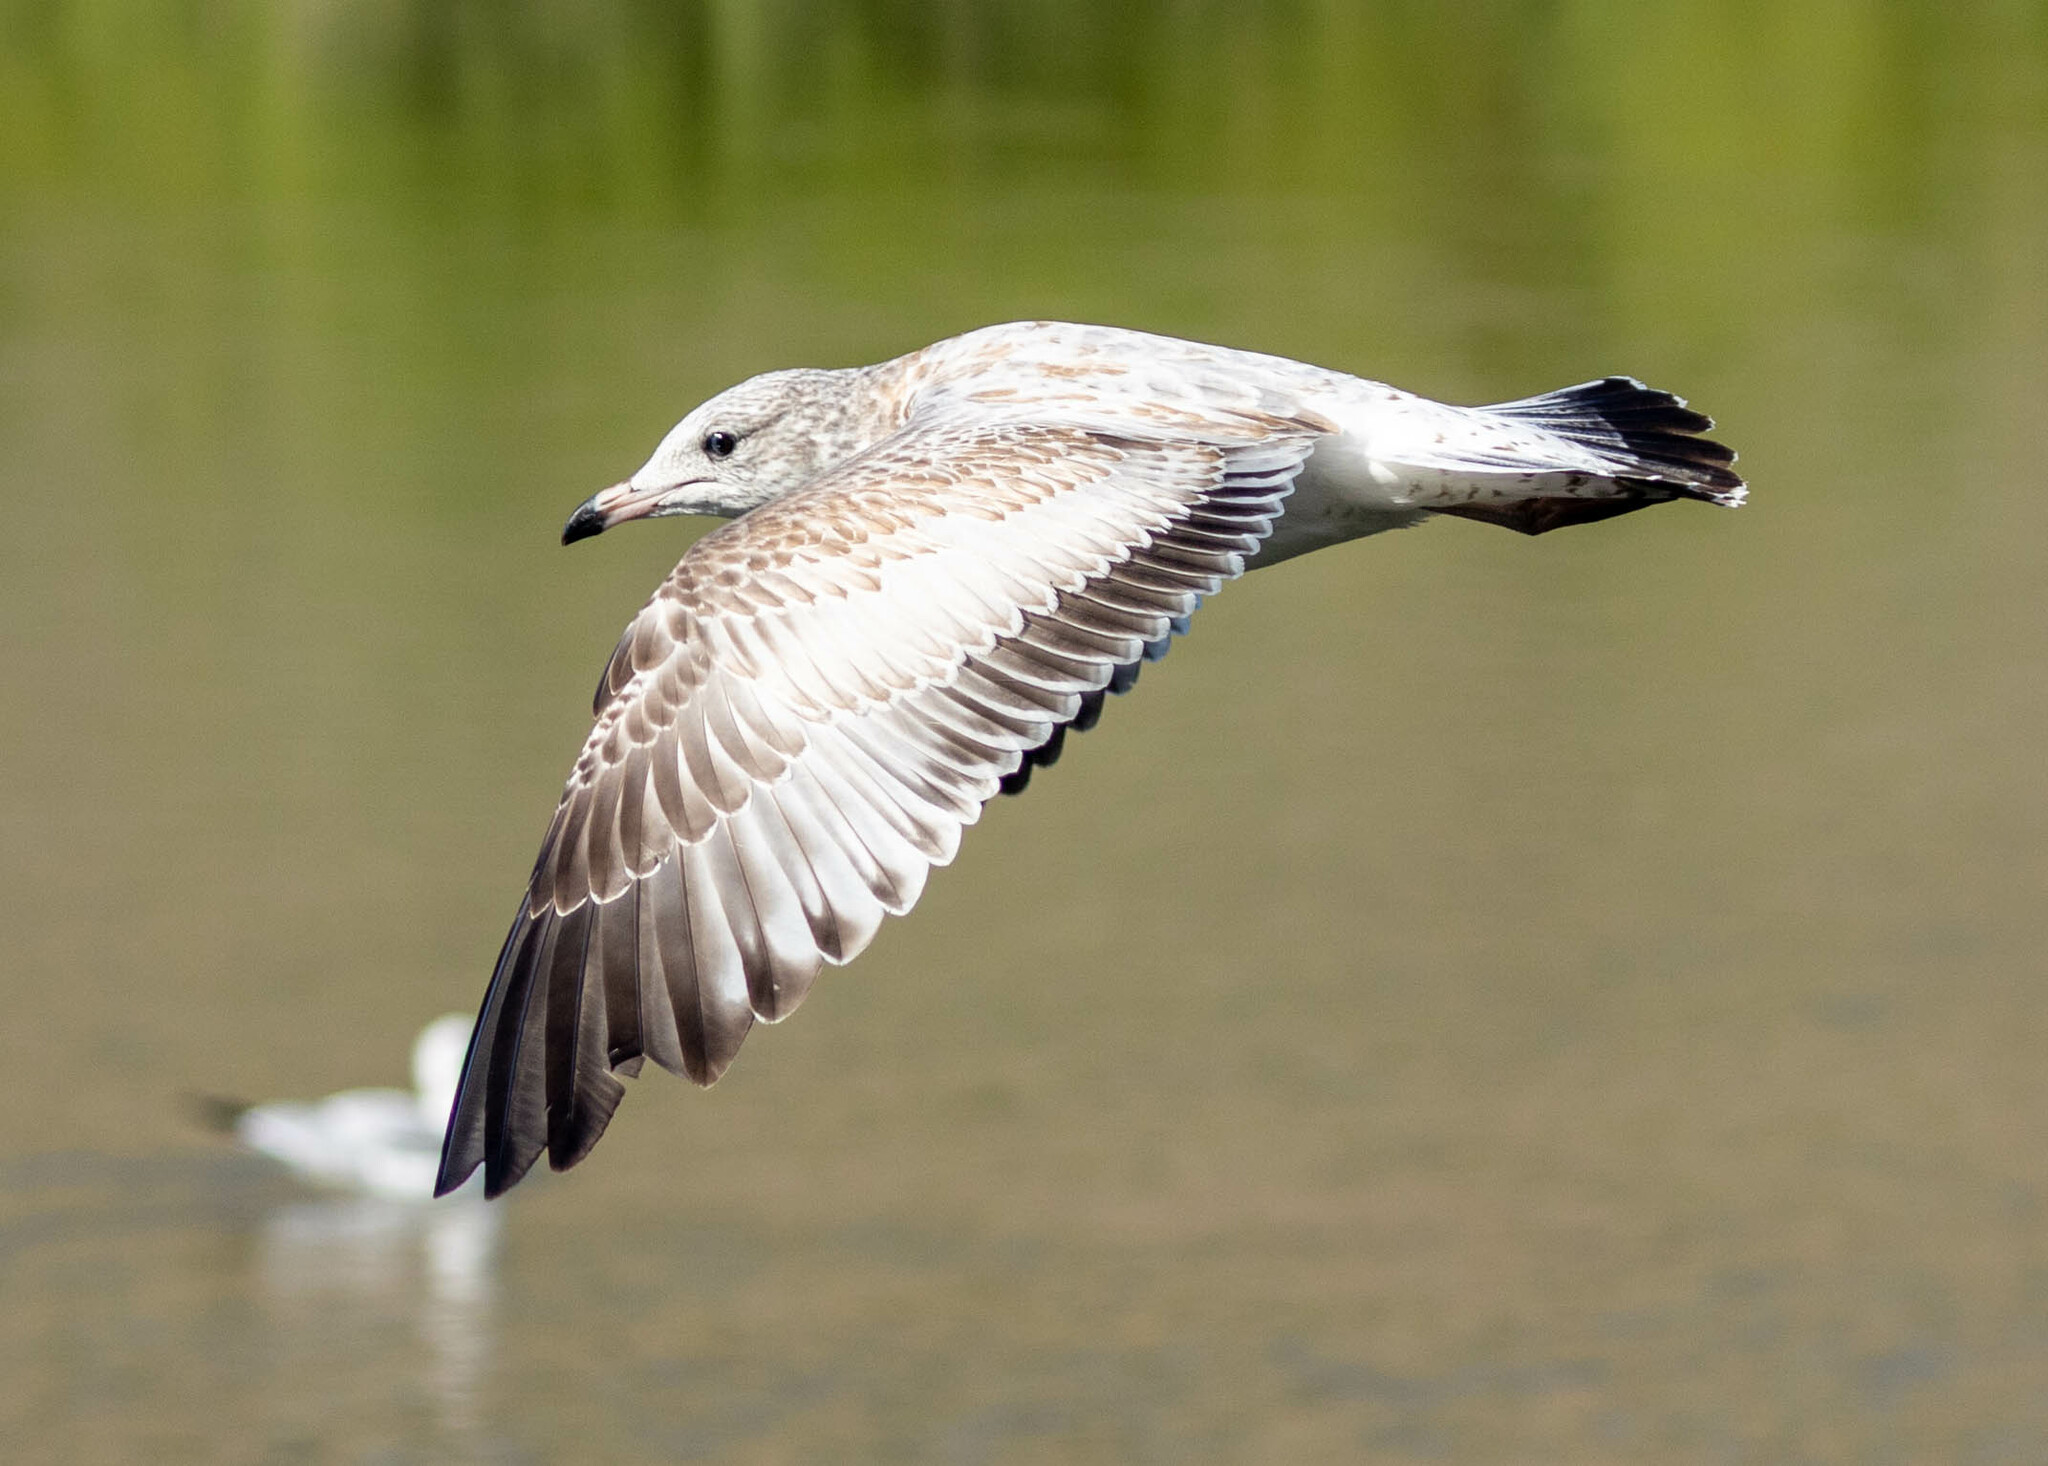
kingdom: Animalia
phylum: Chordata
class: Aves
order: Charadriiformes
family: Laridae
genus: Larus
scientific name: Larus delawarensis
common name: Ring-billed gull
